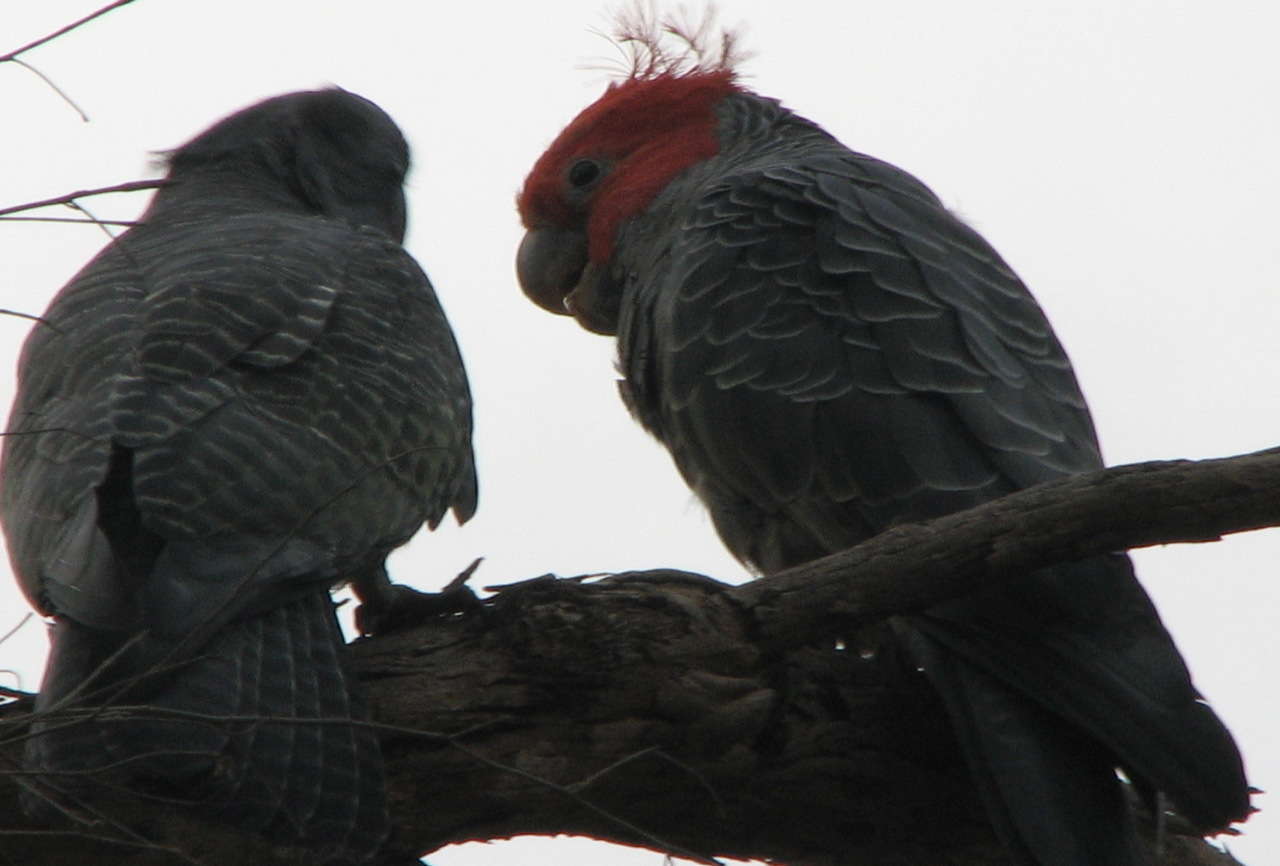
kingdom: Animalia
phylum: Chordata
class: Aves
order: Psittaciformes
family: Psittacidae
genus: Callocephalon
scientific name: Callocephalon fimbriatum
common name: Gang-gang cockatoo
